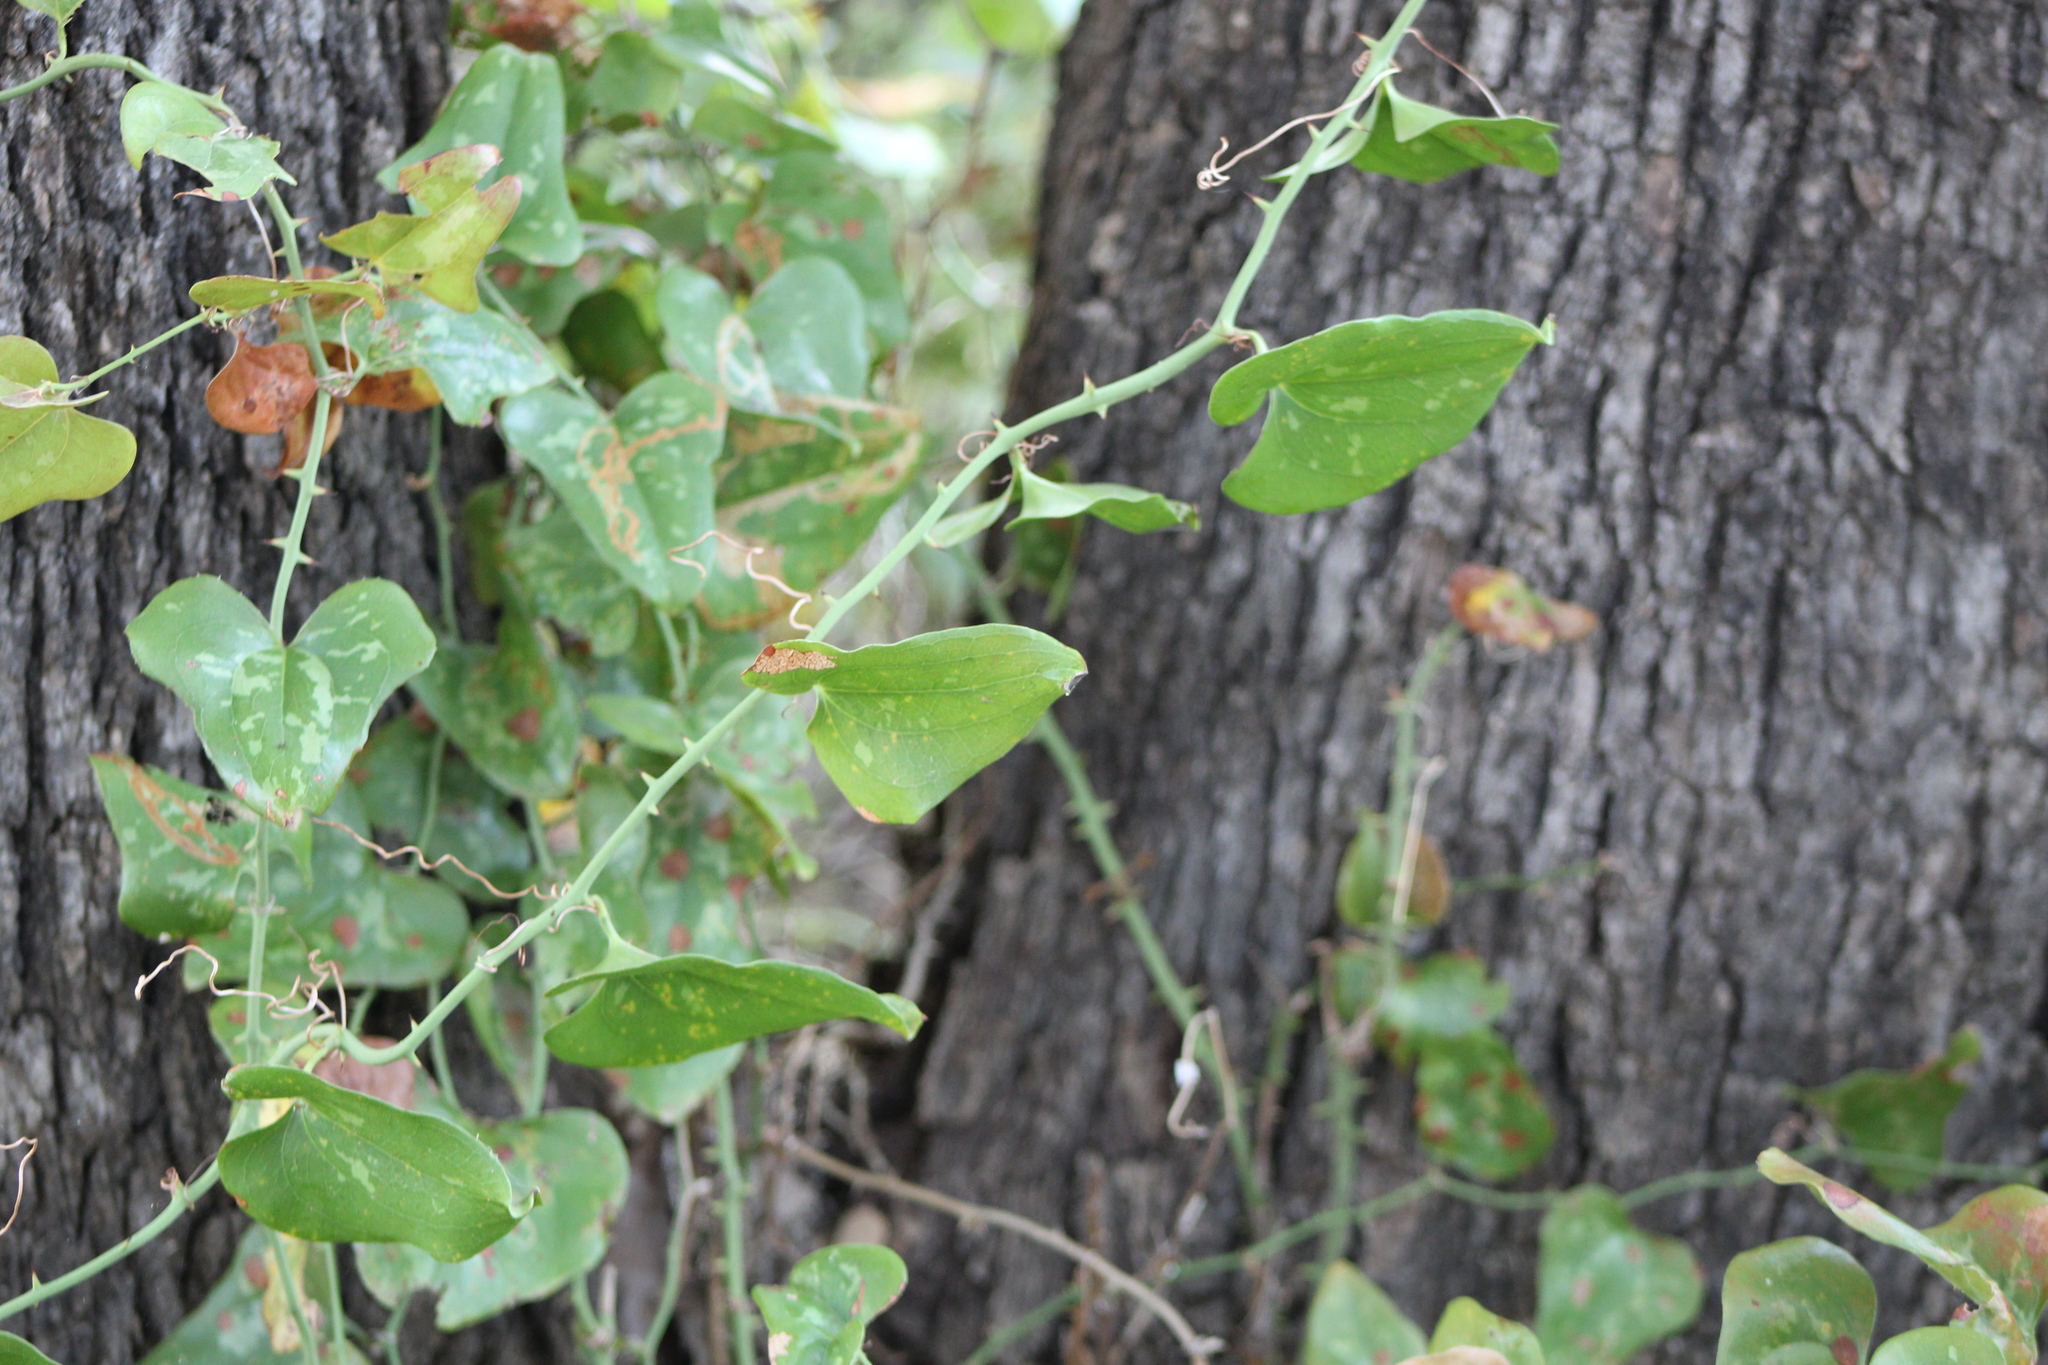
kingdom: Plantae
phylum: Tracheophyta
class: Liliopsida
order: Liliales
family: Smilacaceae
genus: Smilax
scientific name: Smilax bona-nox
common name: Catbrier
